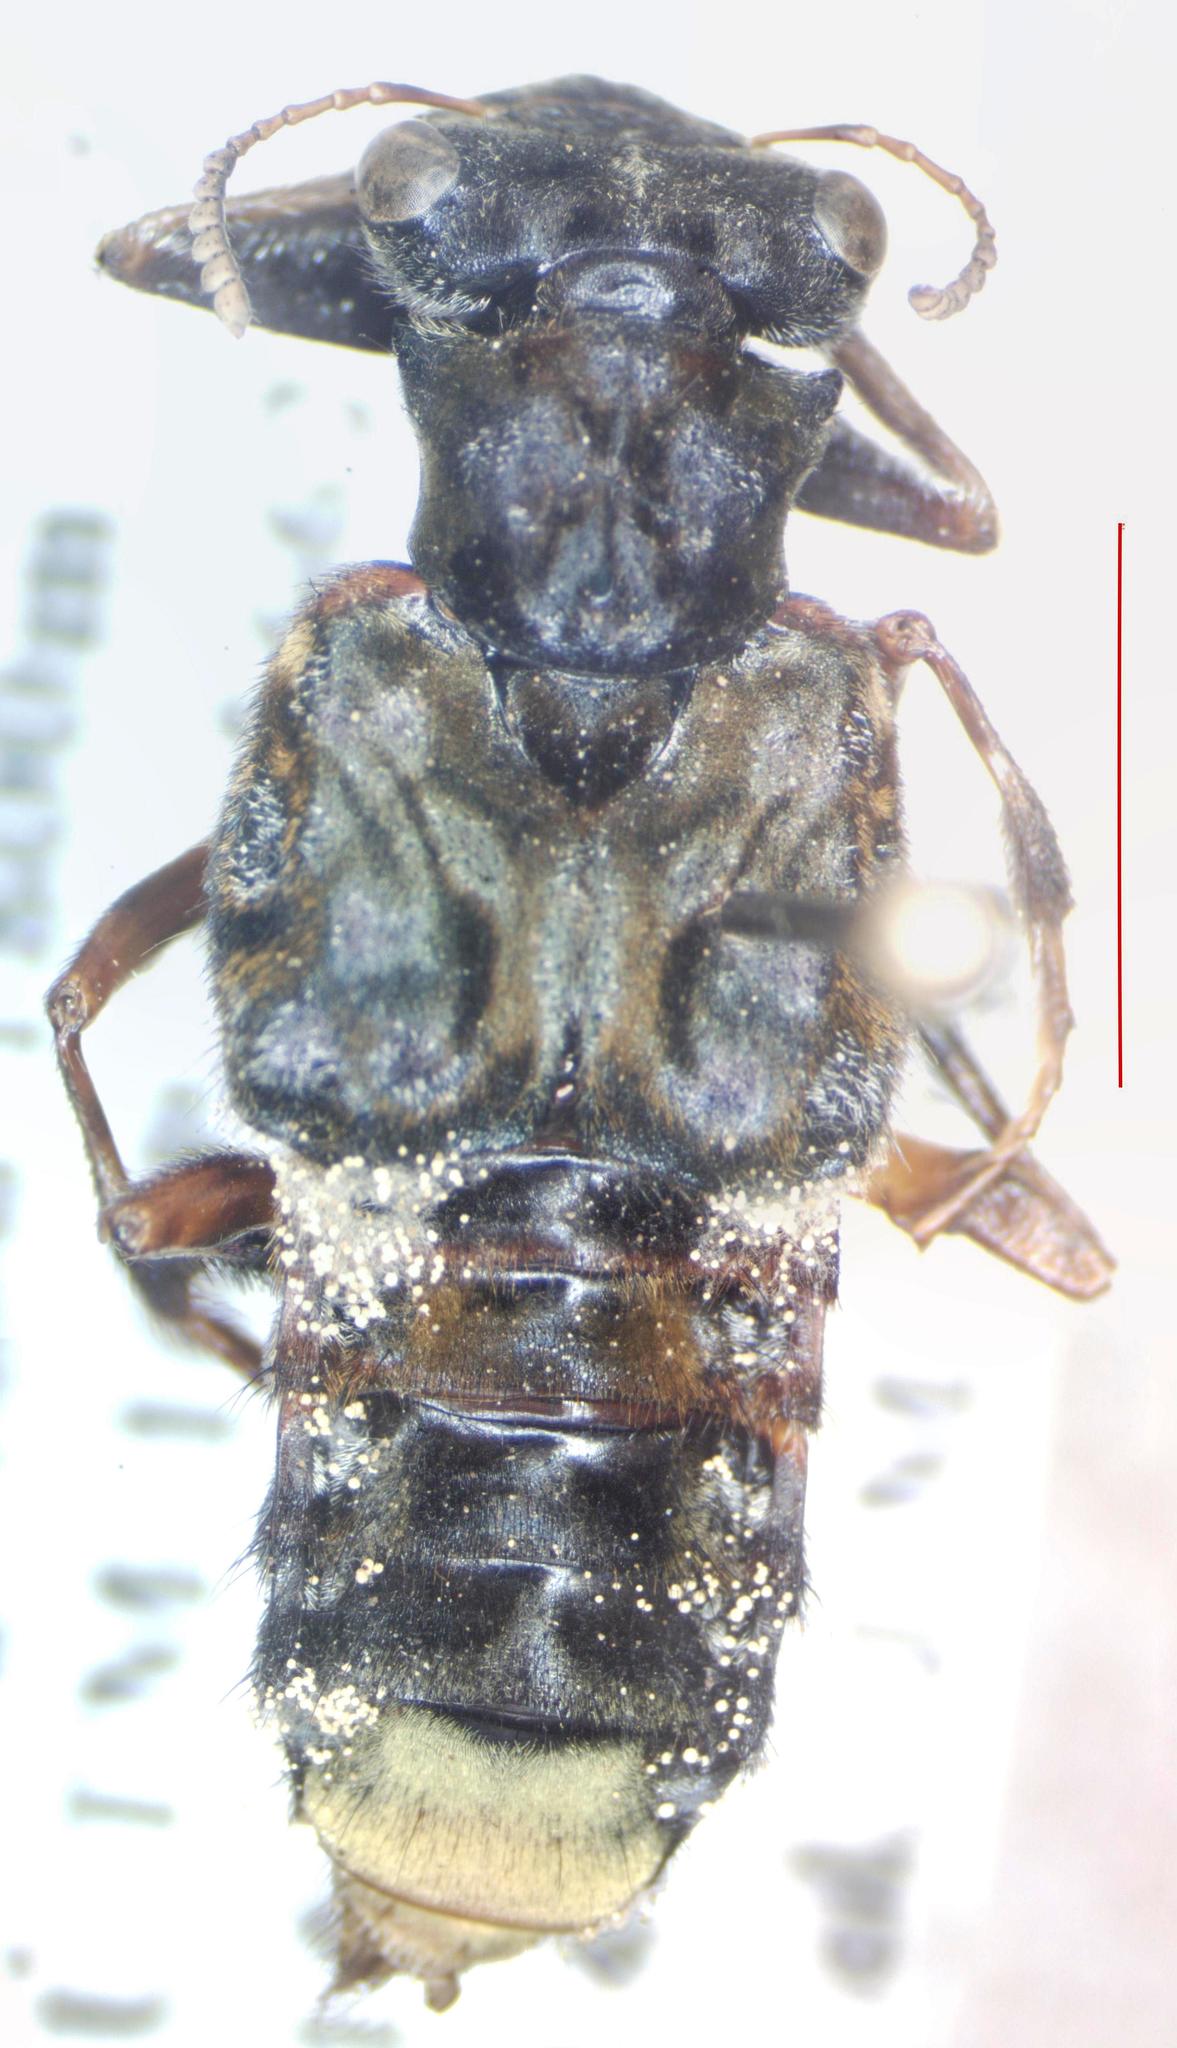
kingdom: Animalia
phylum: Arthropoda
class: Insecta
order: Coleoptera
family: Staphylinidae
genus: Leistotrophus
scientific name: Leistotrophus versicolor
